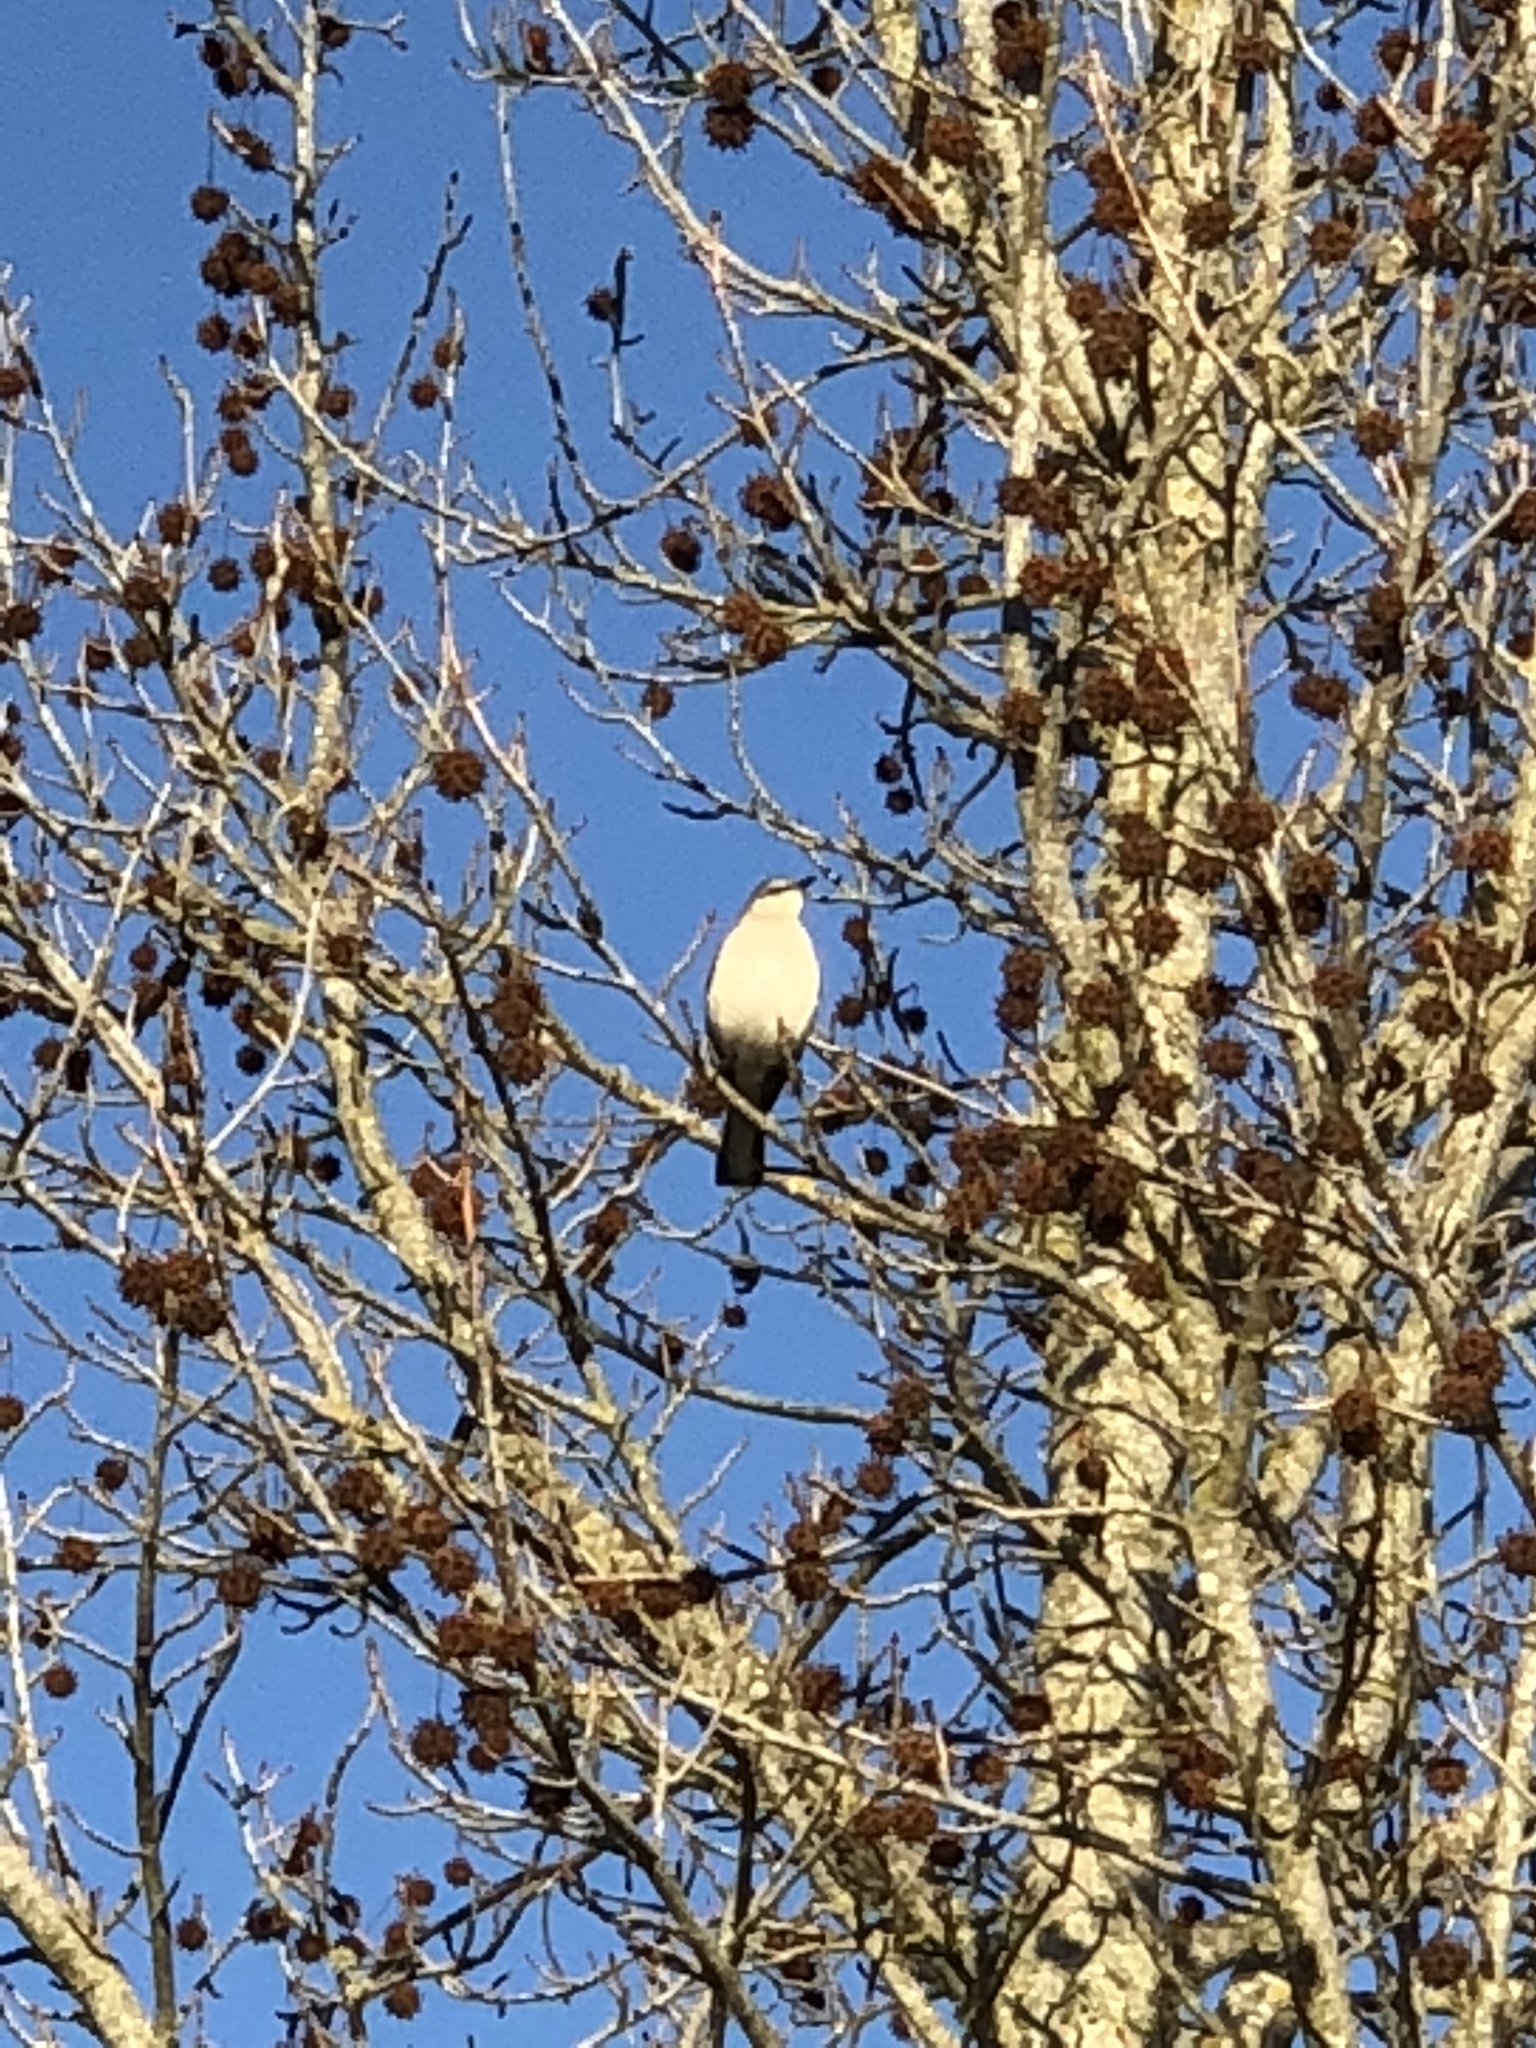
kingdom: Animalia
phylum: Chordata
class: Aves
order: Passeriformes
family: Mimidae
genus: Mimus
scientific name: Mimus polyglottos
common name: Northern mockingbird
